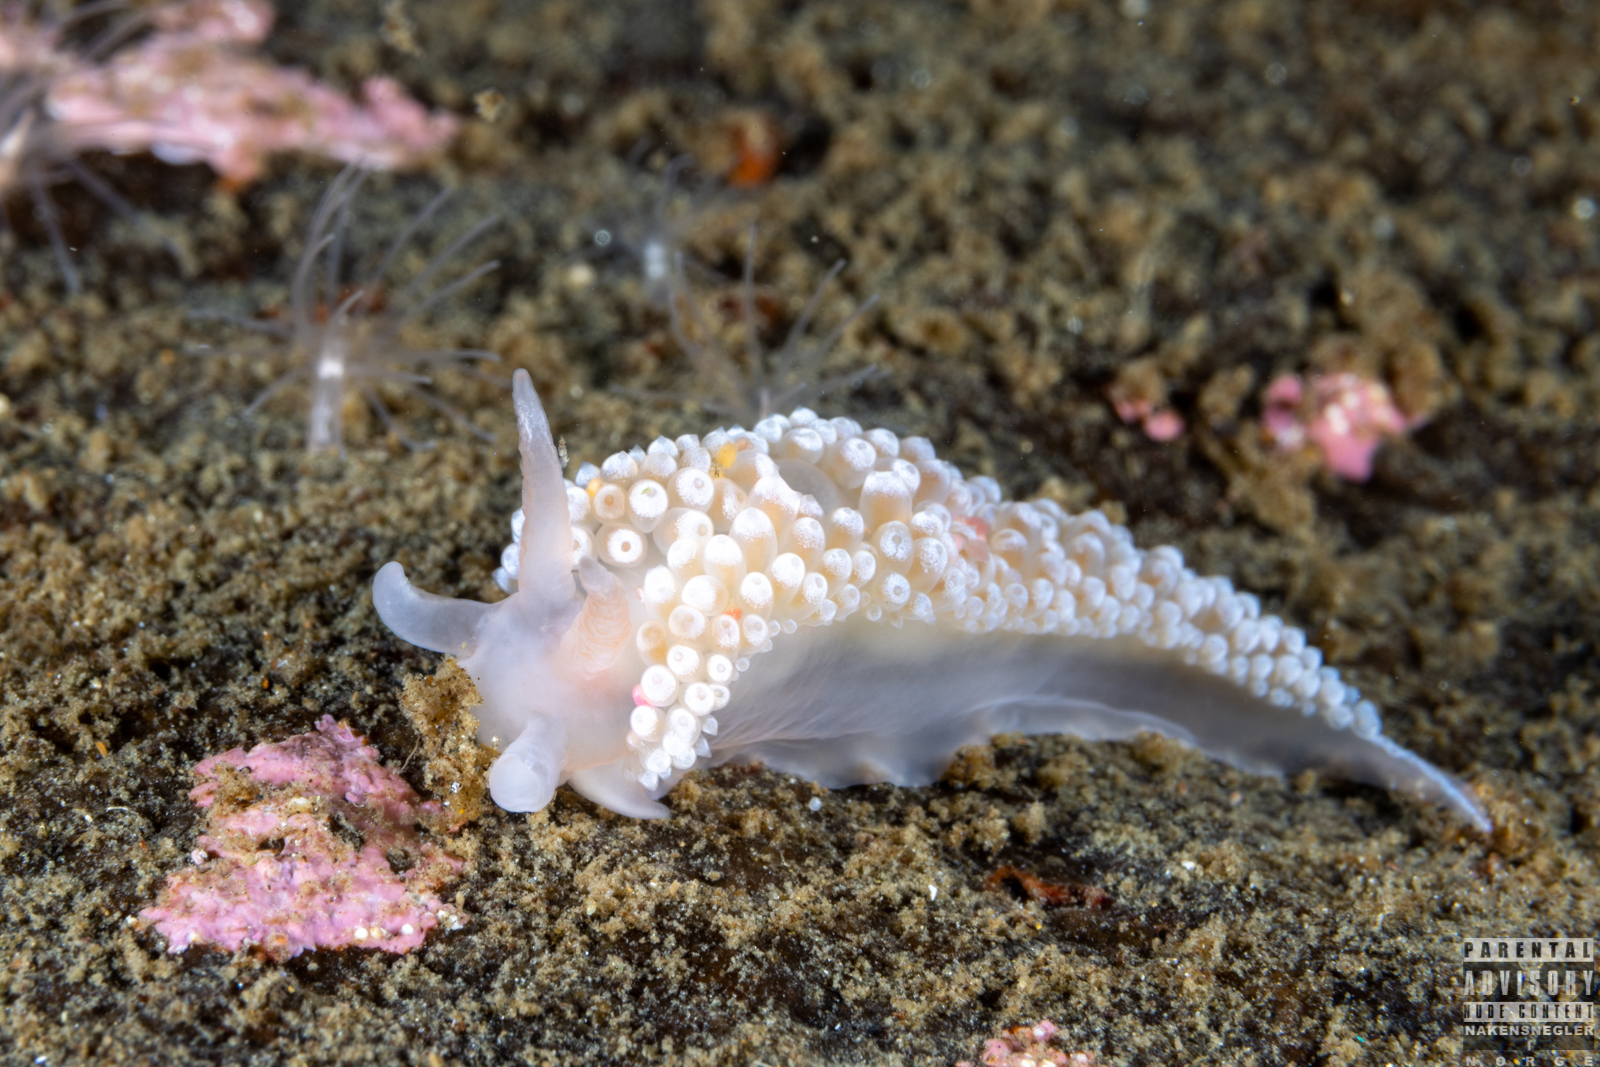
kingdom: Animalia
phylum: Mollusca
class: Gastropoda
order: Nudibranchia
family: Coryphellidae
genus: Coryphella
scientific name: Coryphella verrucosa
